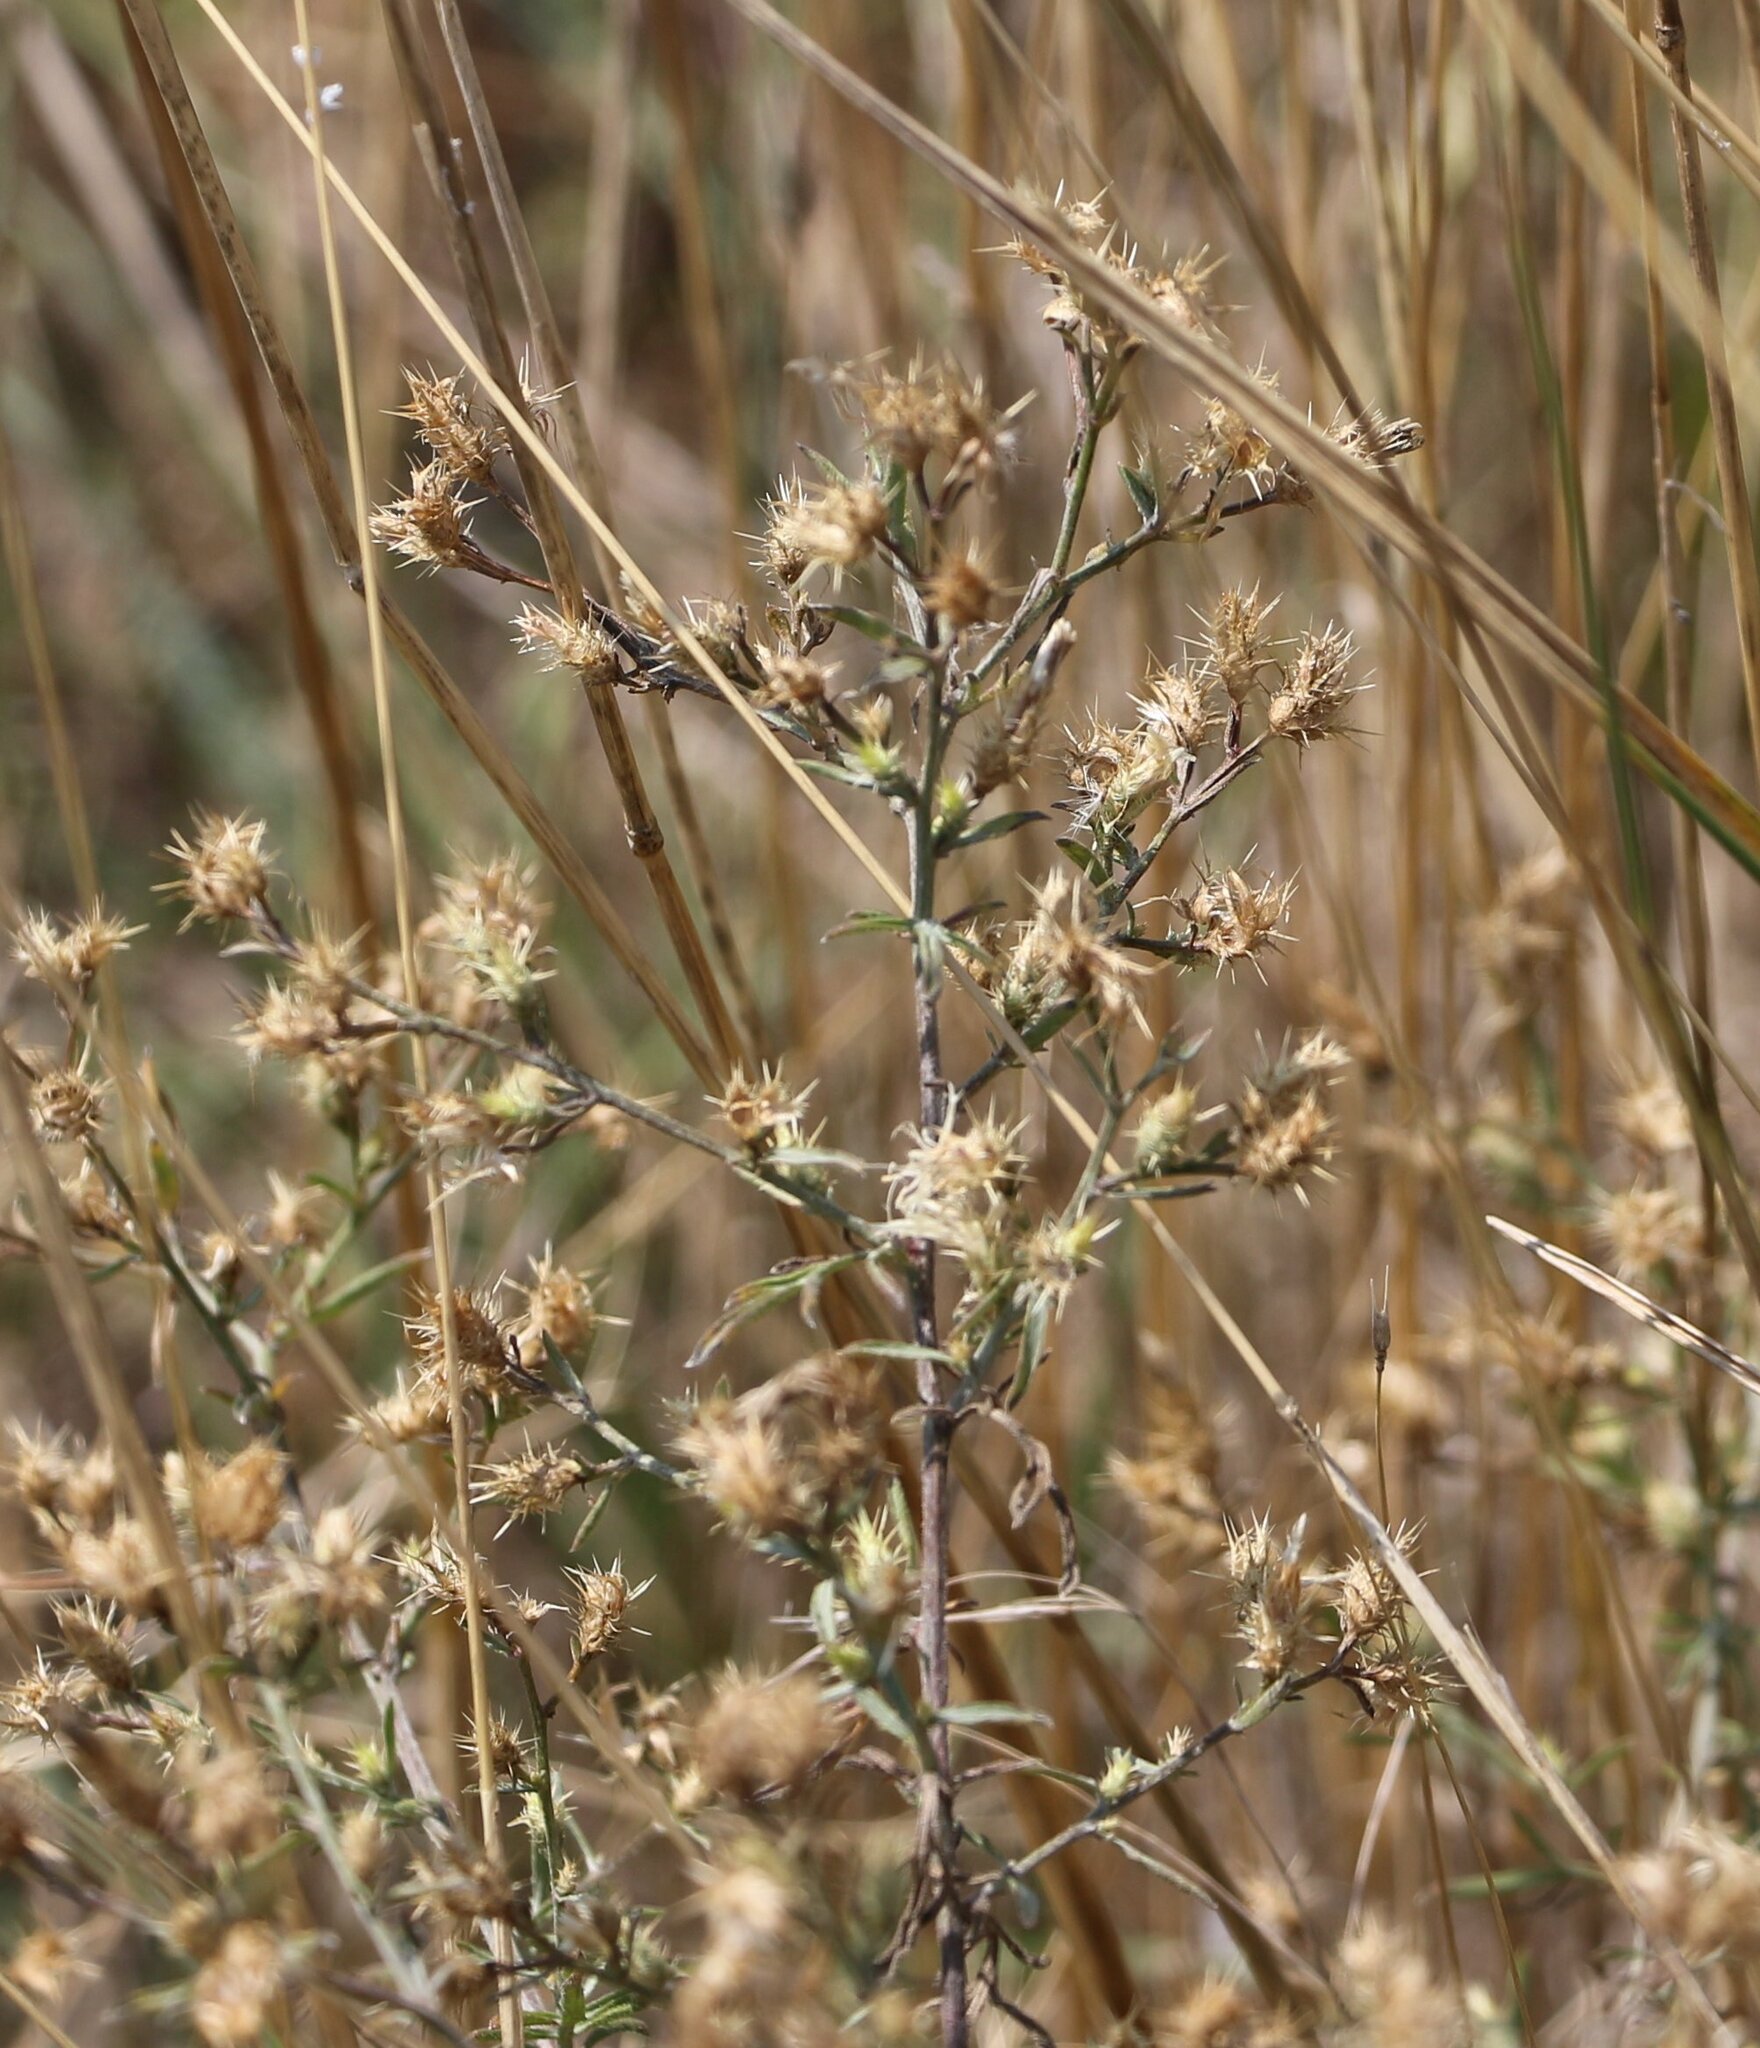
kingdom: Plantae
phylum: Tracheophyta
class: Magnoliopsida
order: Asterales
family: Asteraceae
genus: Centaurea
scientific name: Centaurea diffusa
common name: Diffuse knapweed
